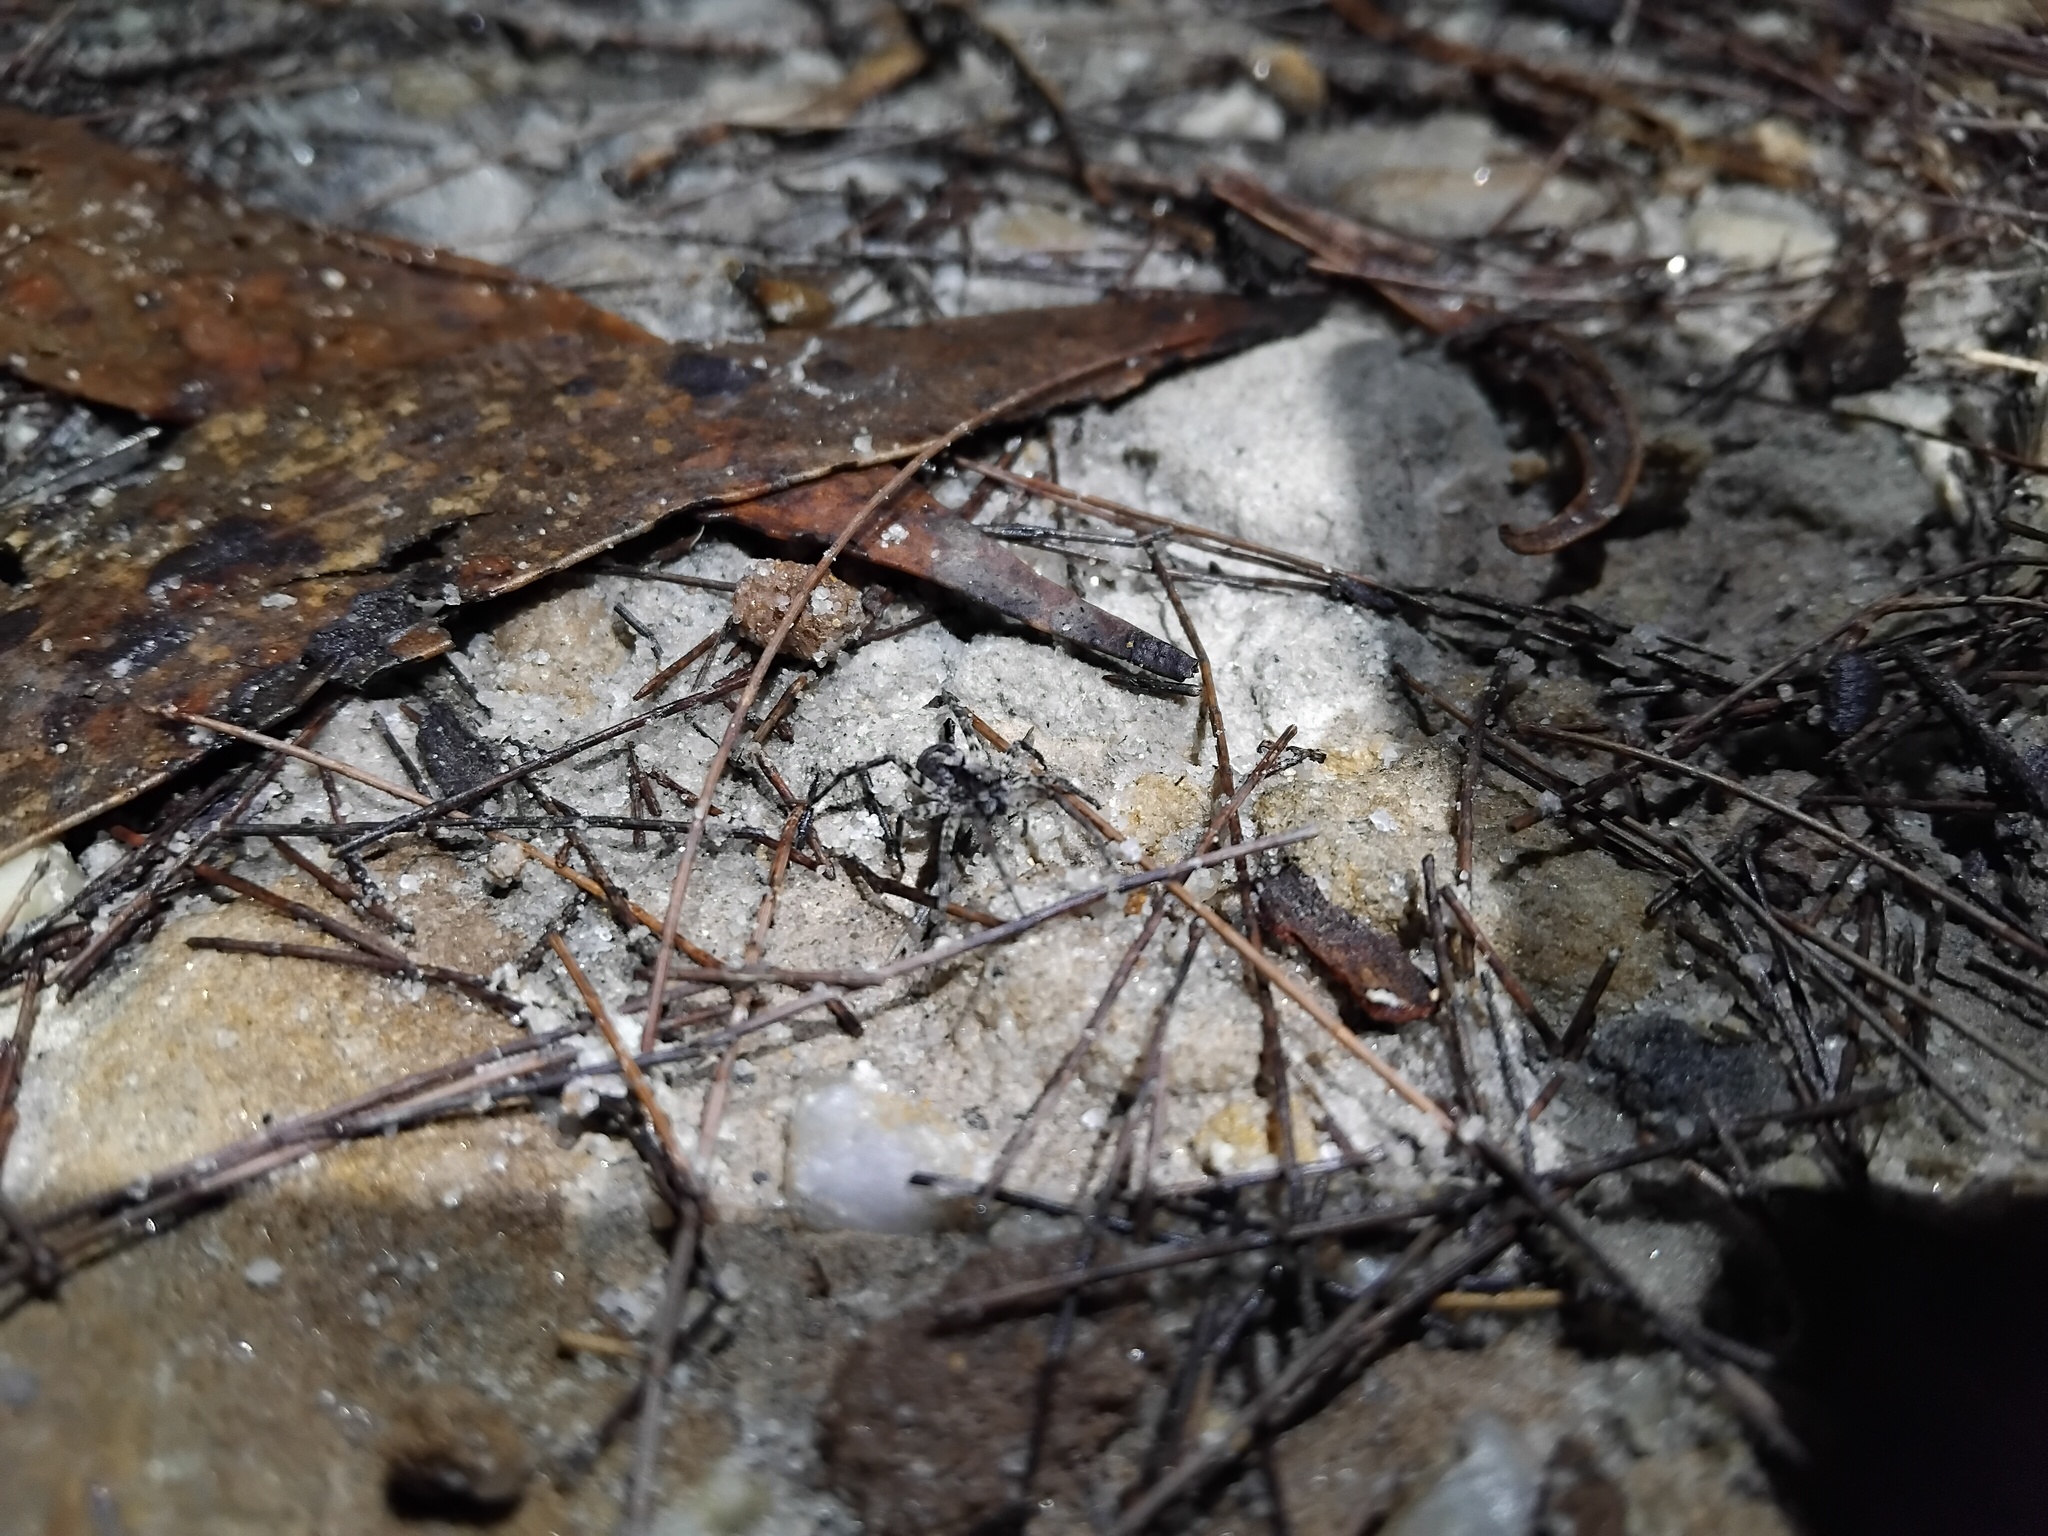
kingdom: Animalia
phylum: Arthropoda
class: Arachnida
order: Araneae
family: Lycosidae
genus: Venator
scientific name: Venator spenceri
